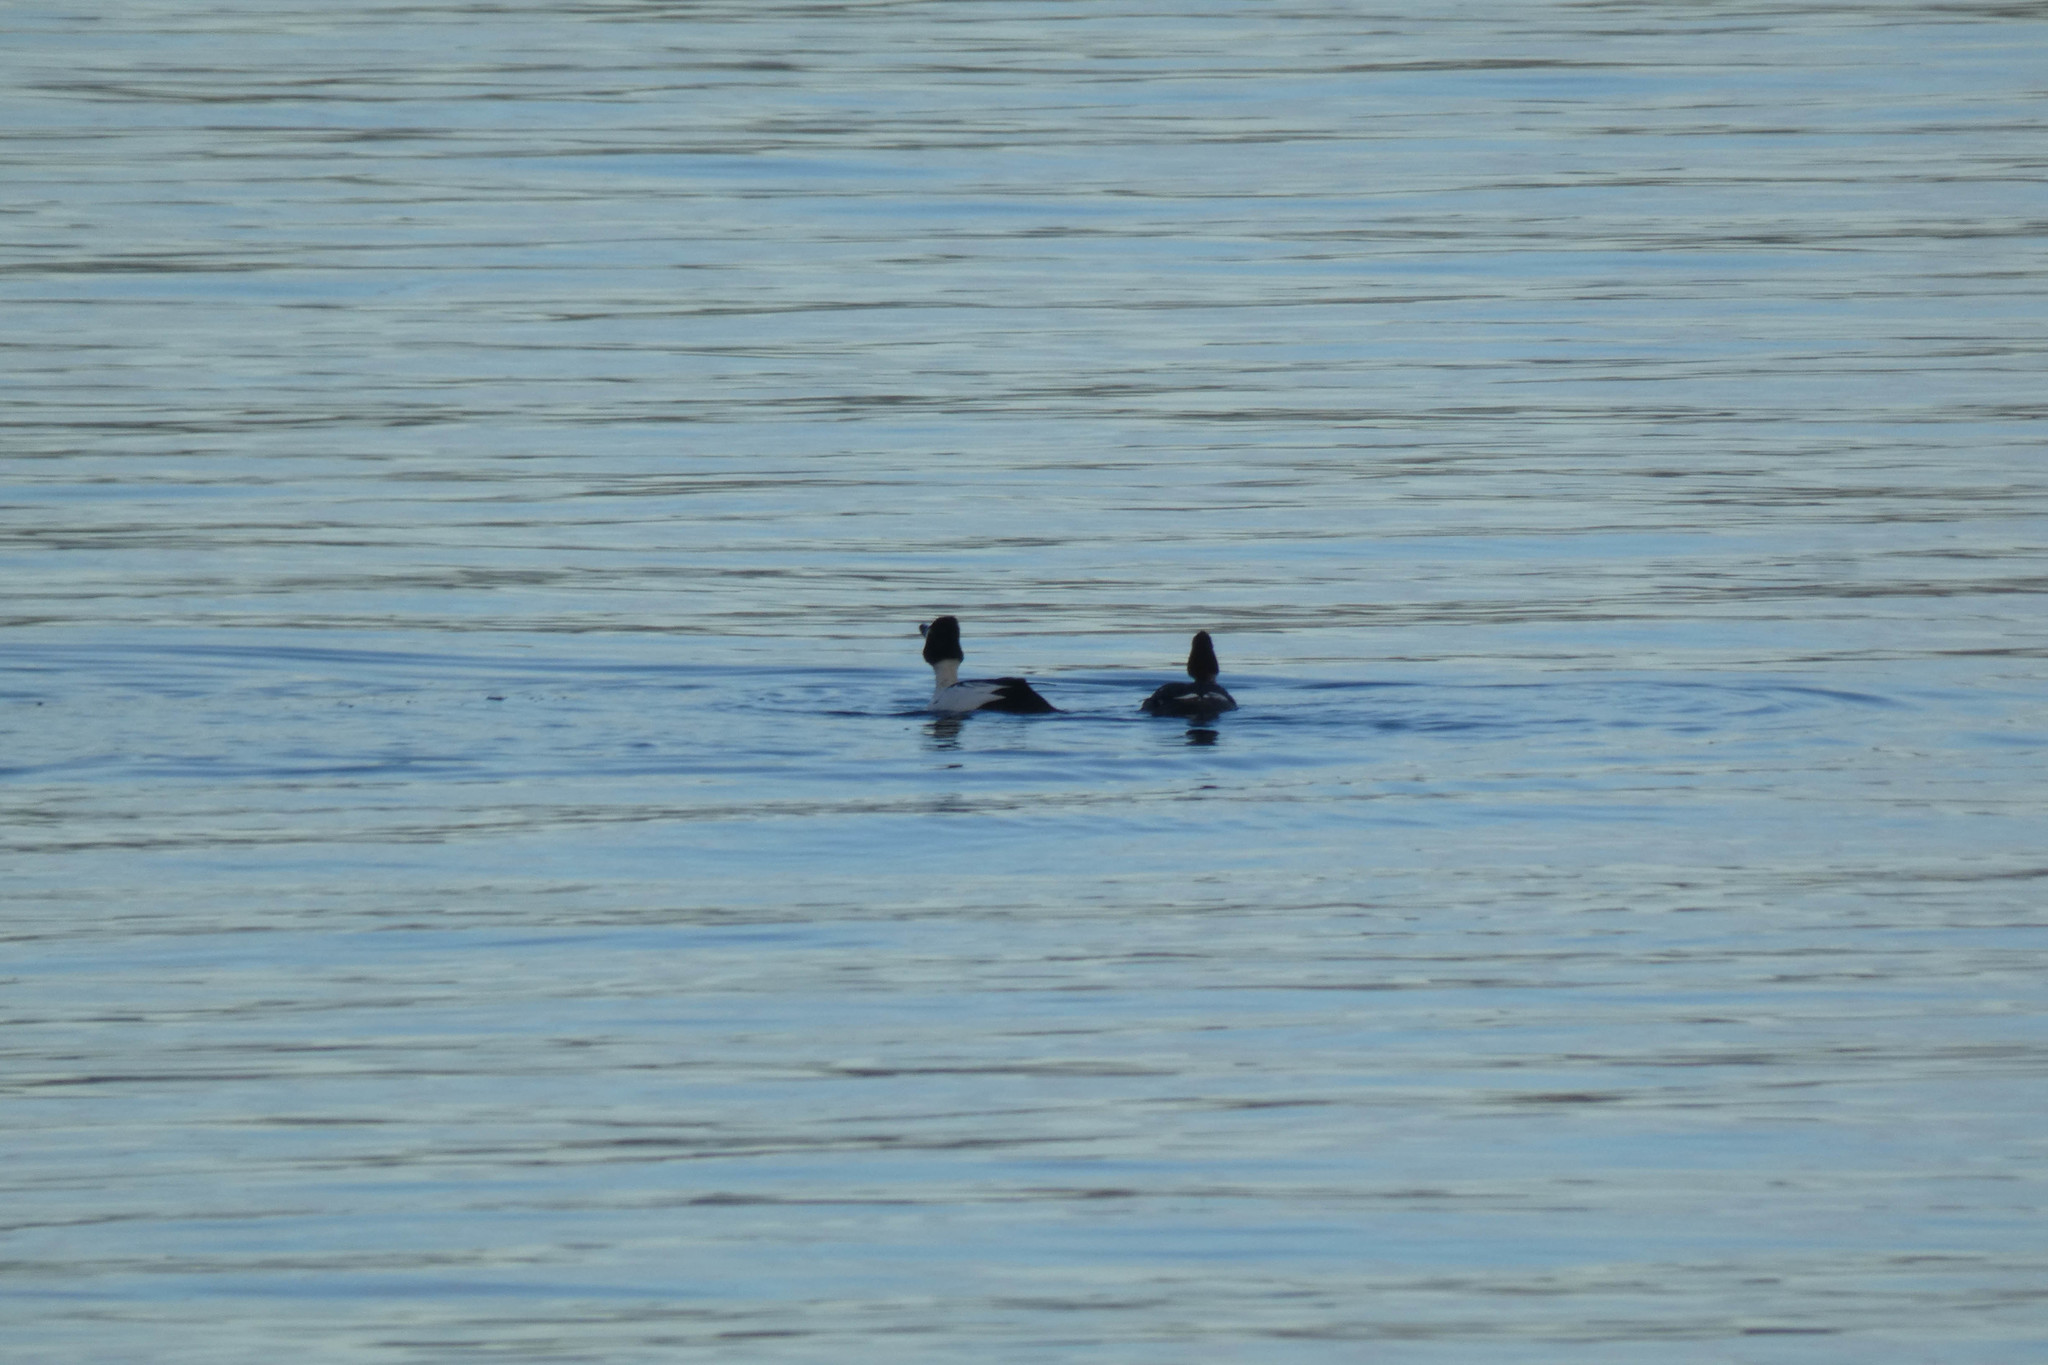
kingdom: Animalia
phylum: Chordata
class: Aves
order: Anseriformes
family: Anatidae
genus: Bucephala
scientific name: Bucephala clangula
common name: Common goldeneye
